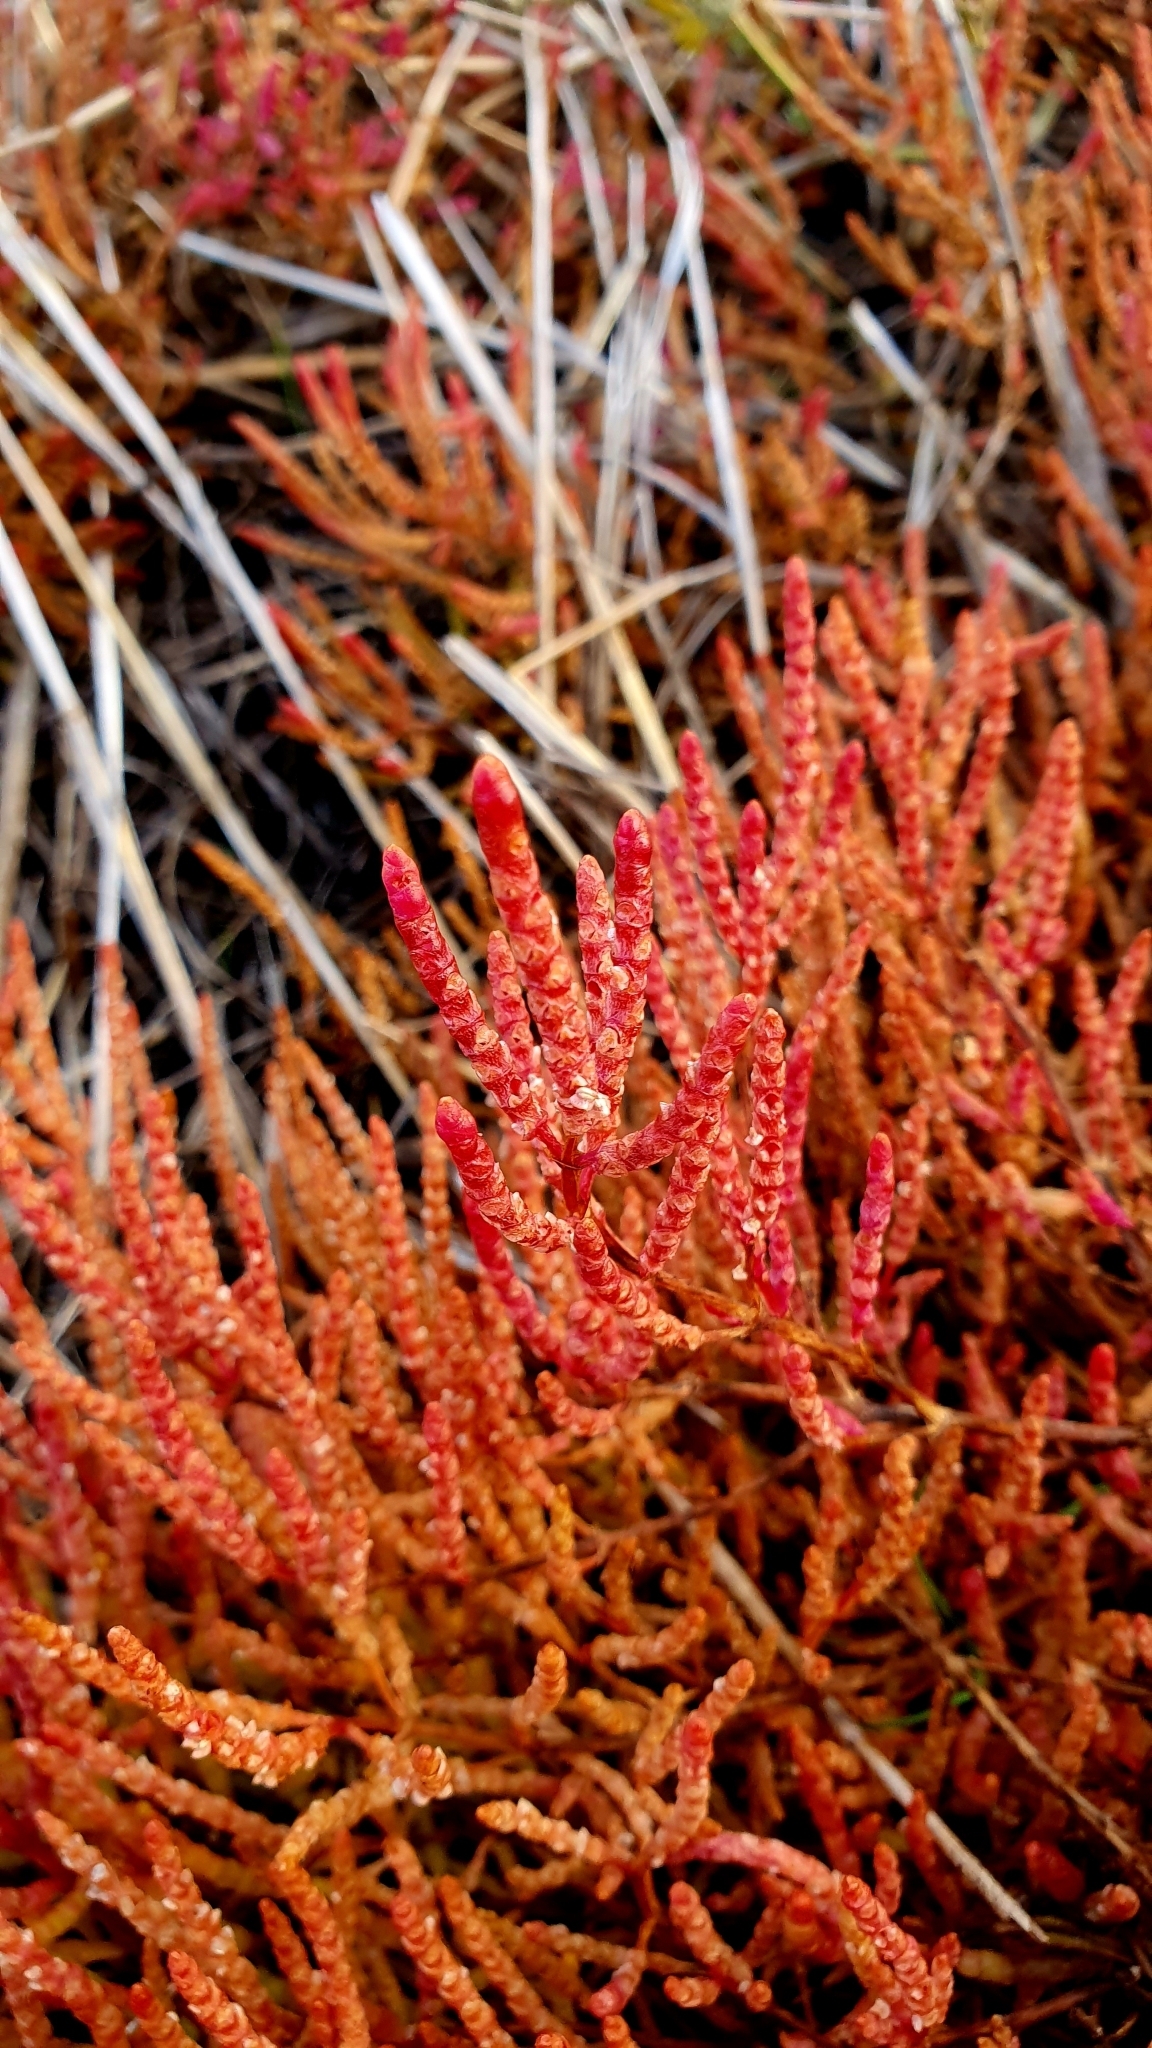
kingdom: Plantae
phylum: Tracheophyta
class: Magnoliopsida
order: Caryophyllales
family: Amaranthaceae
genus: Salicornia
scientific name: Salicornia perennans
